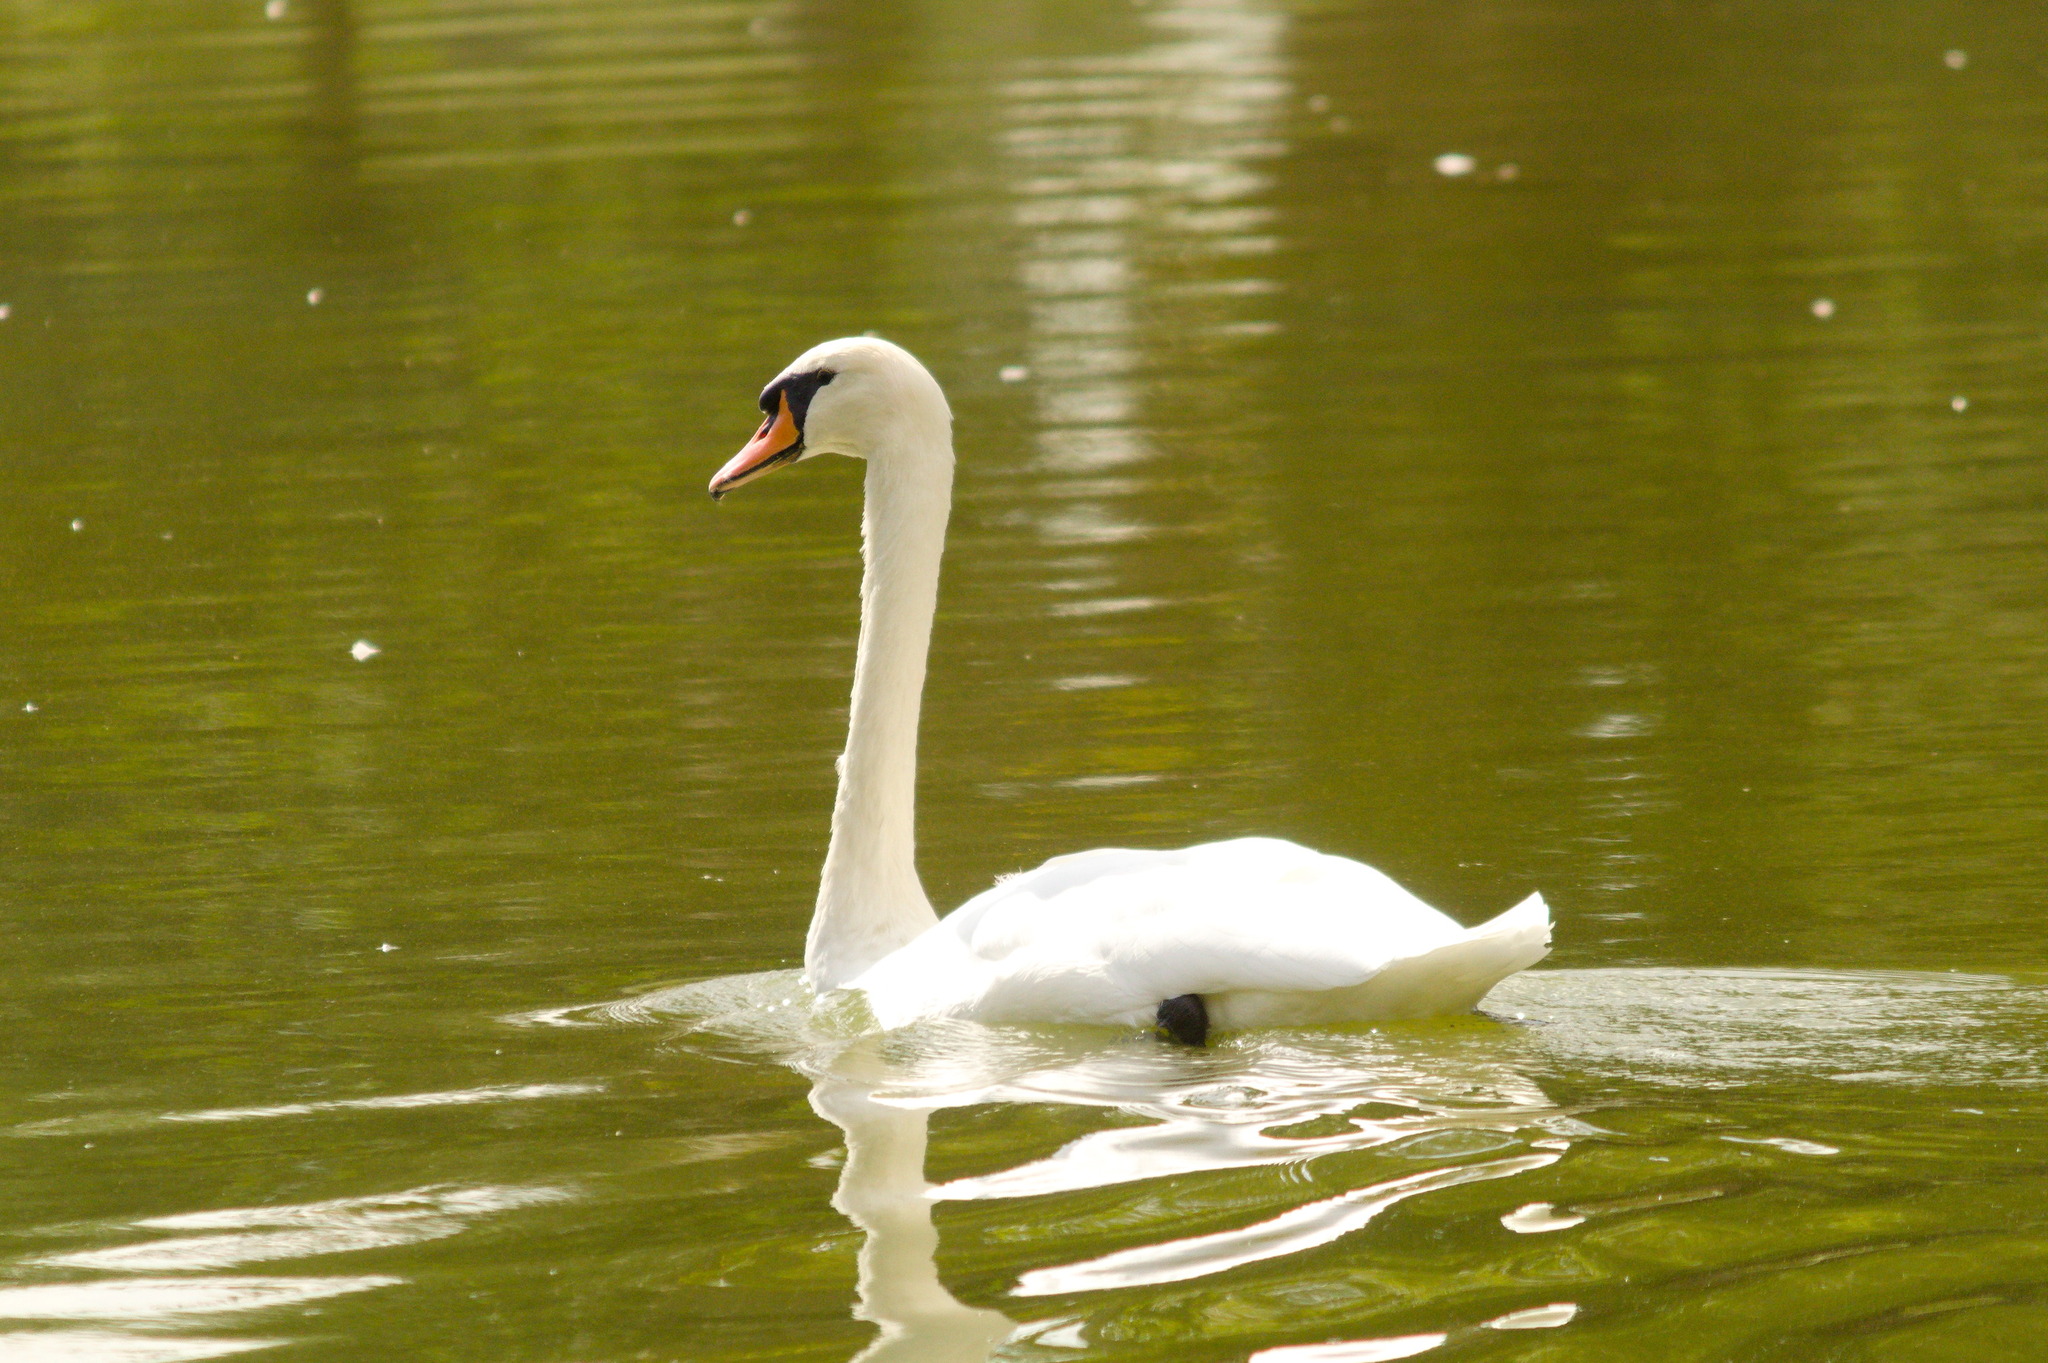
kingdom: Animalia
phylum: Chordata
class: Aves
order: Anseriformes
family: Anatidae
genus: Cygnus
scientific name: Cygnus olor
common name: Mute swan
